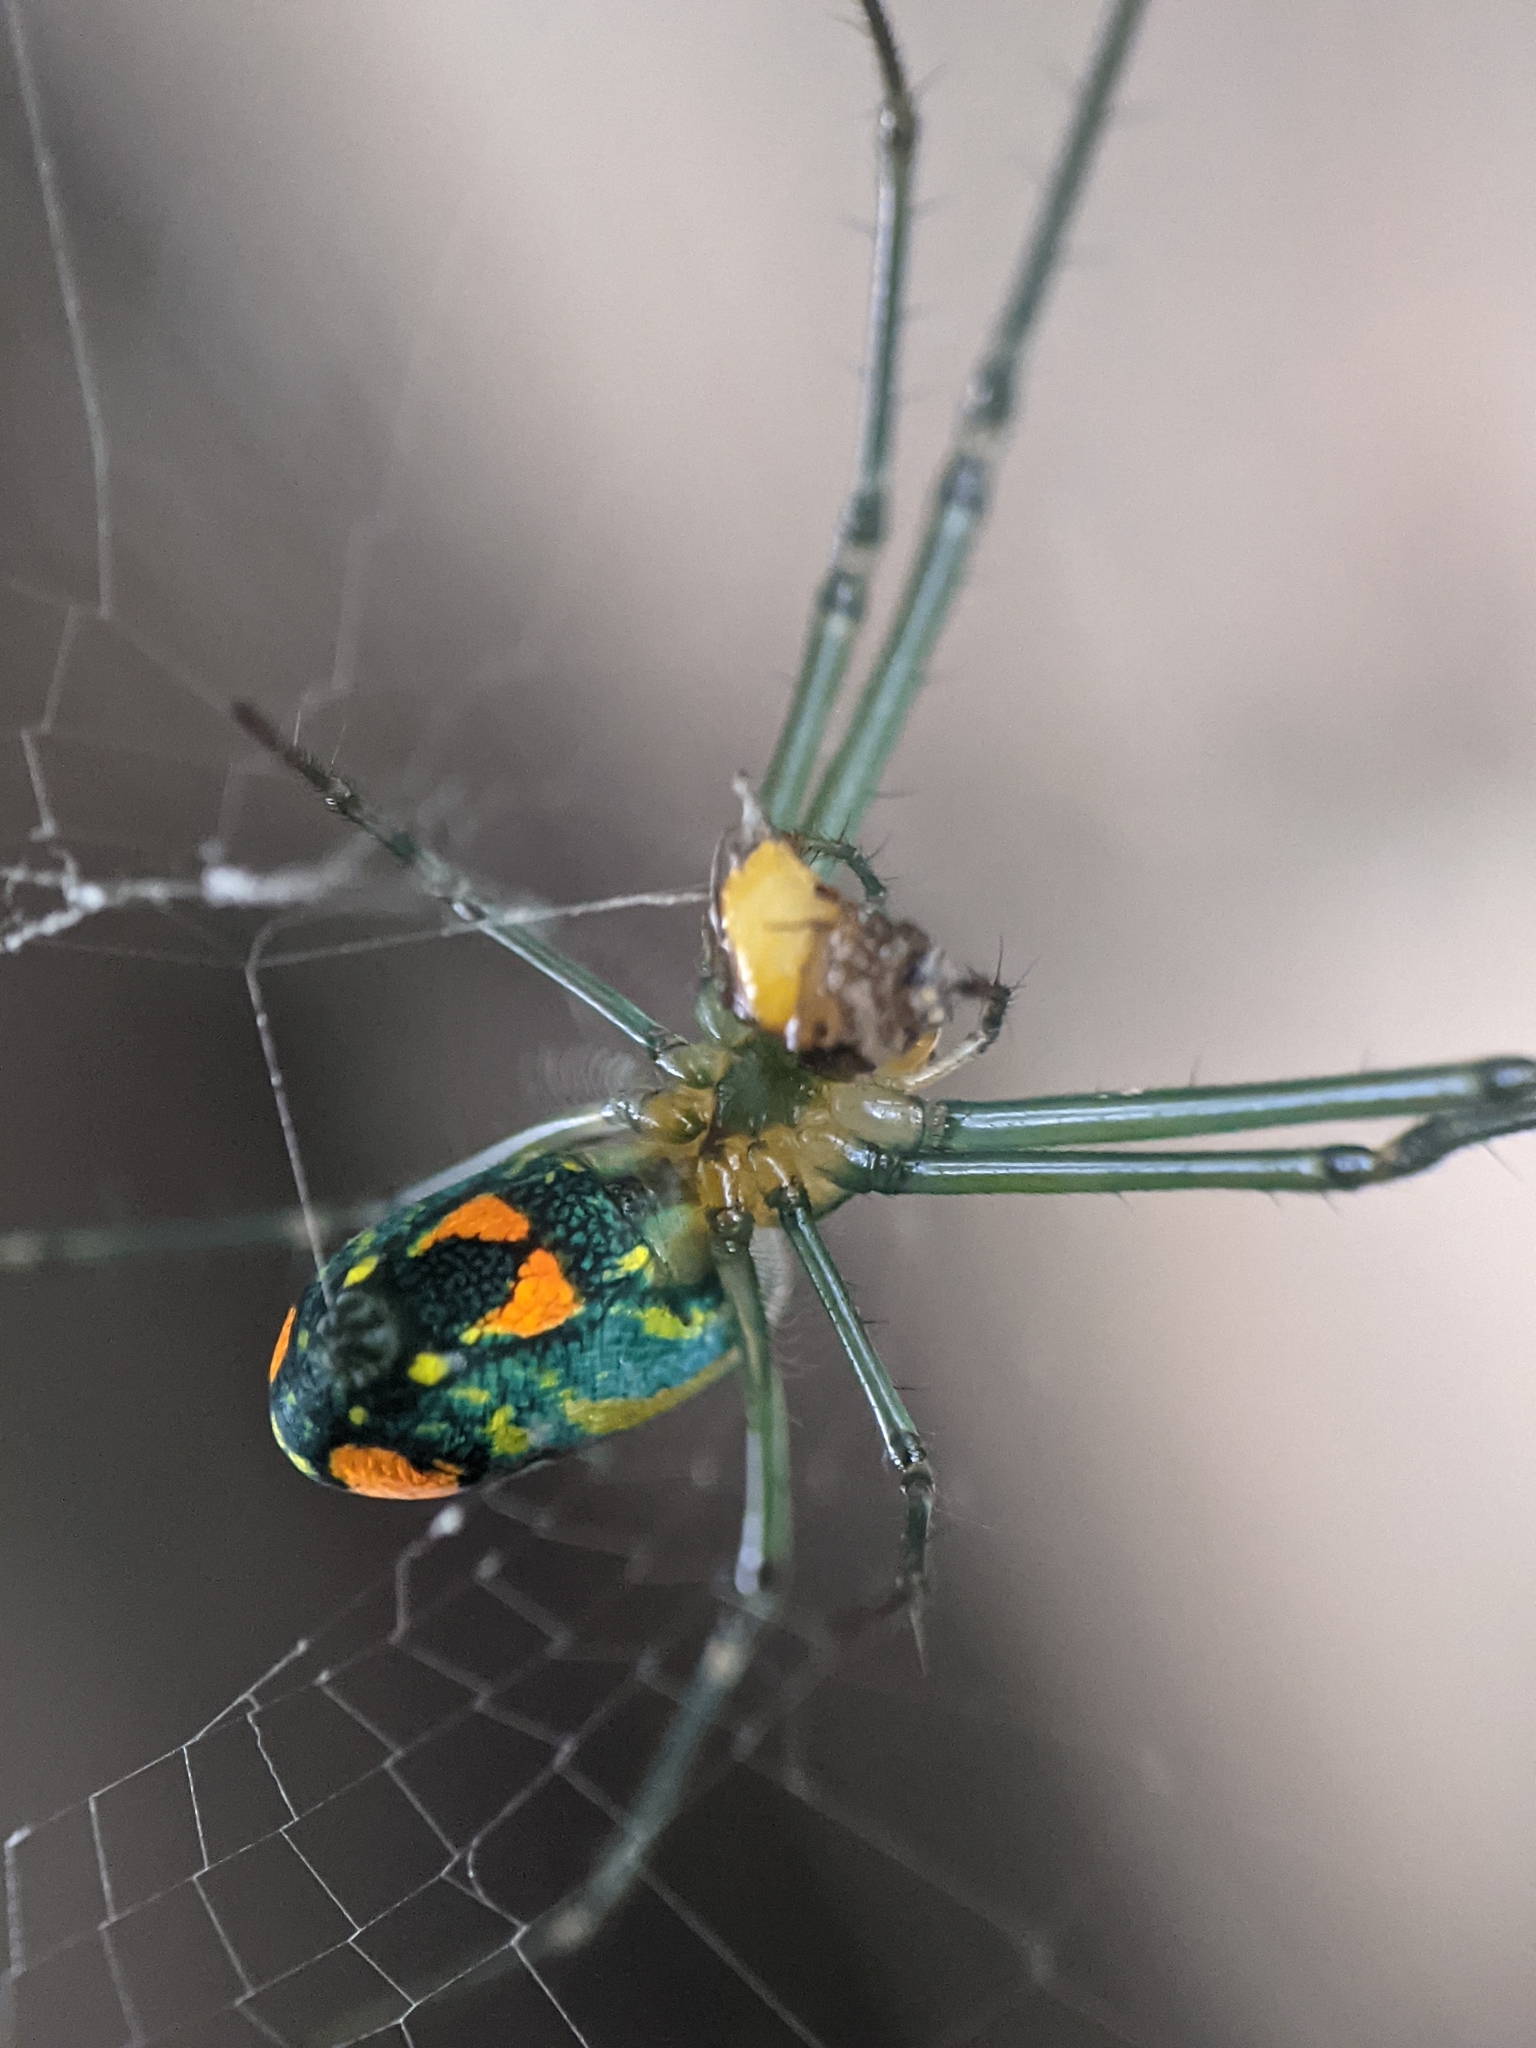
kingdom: Animalia
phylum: Arthropoda
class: Arachnida
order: Araneae
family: Tetragnathidae
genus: Leucauge
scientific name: Leucauge argyrobapta
